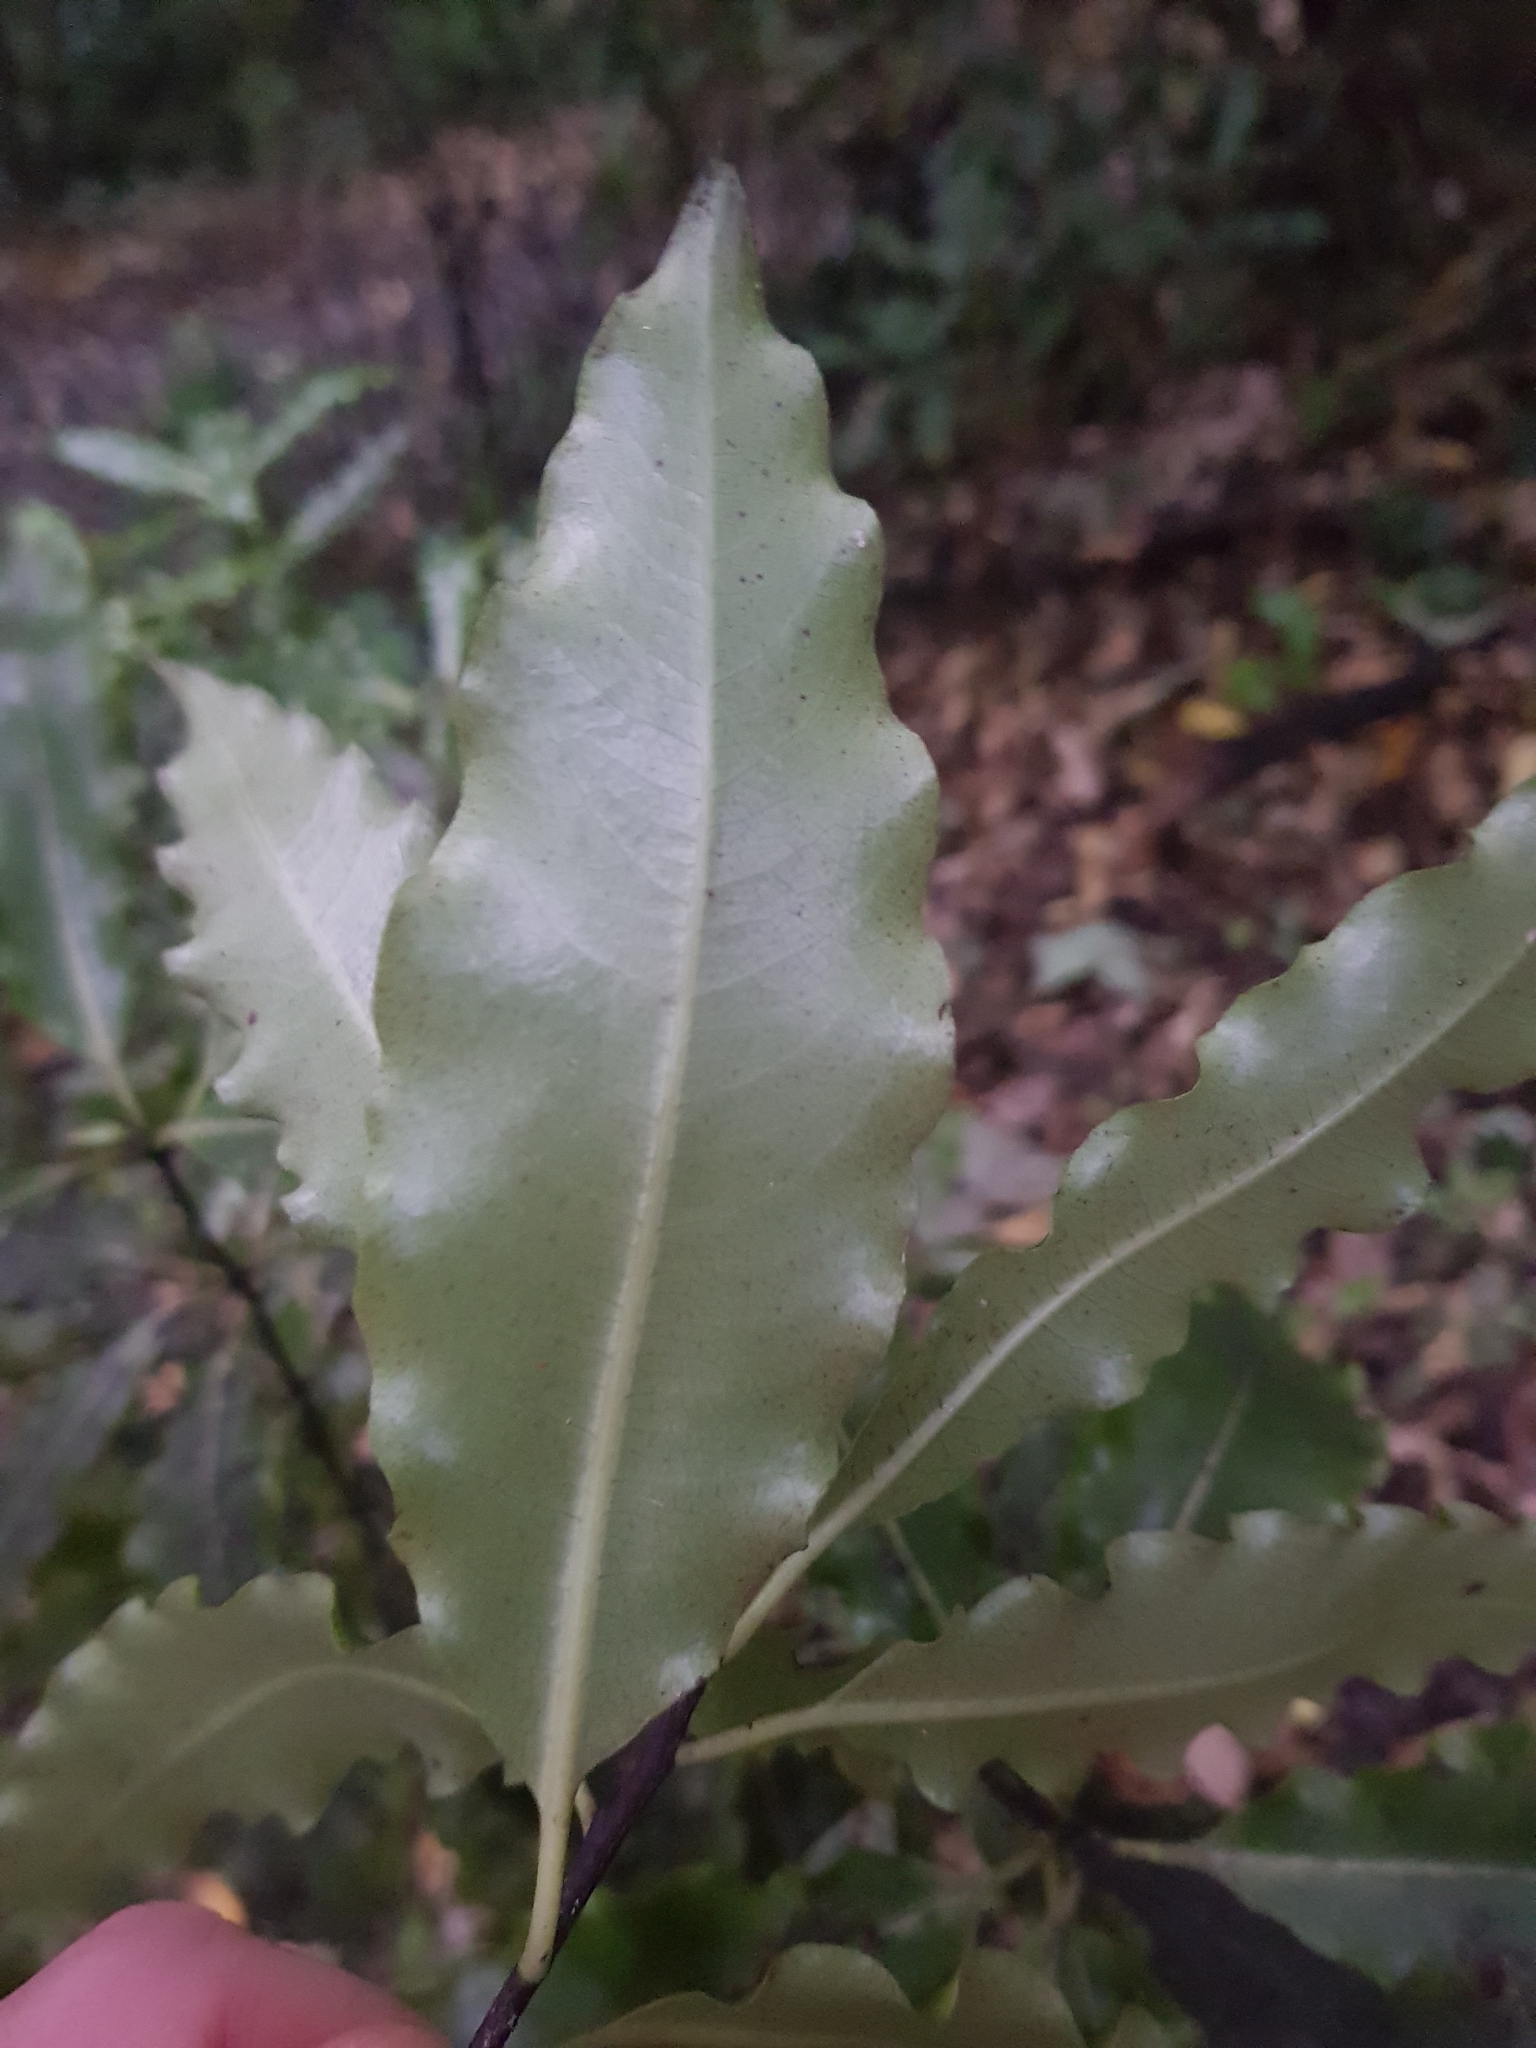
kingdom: Plantae
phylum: Tracheophyta
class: Magnoliopsida
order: Apiales
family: Pittosporaceae
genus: Pittosporum
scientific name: Pittosporum eugenioides
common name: Lemonwood
